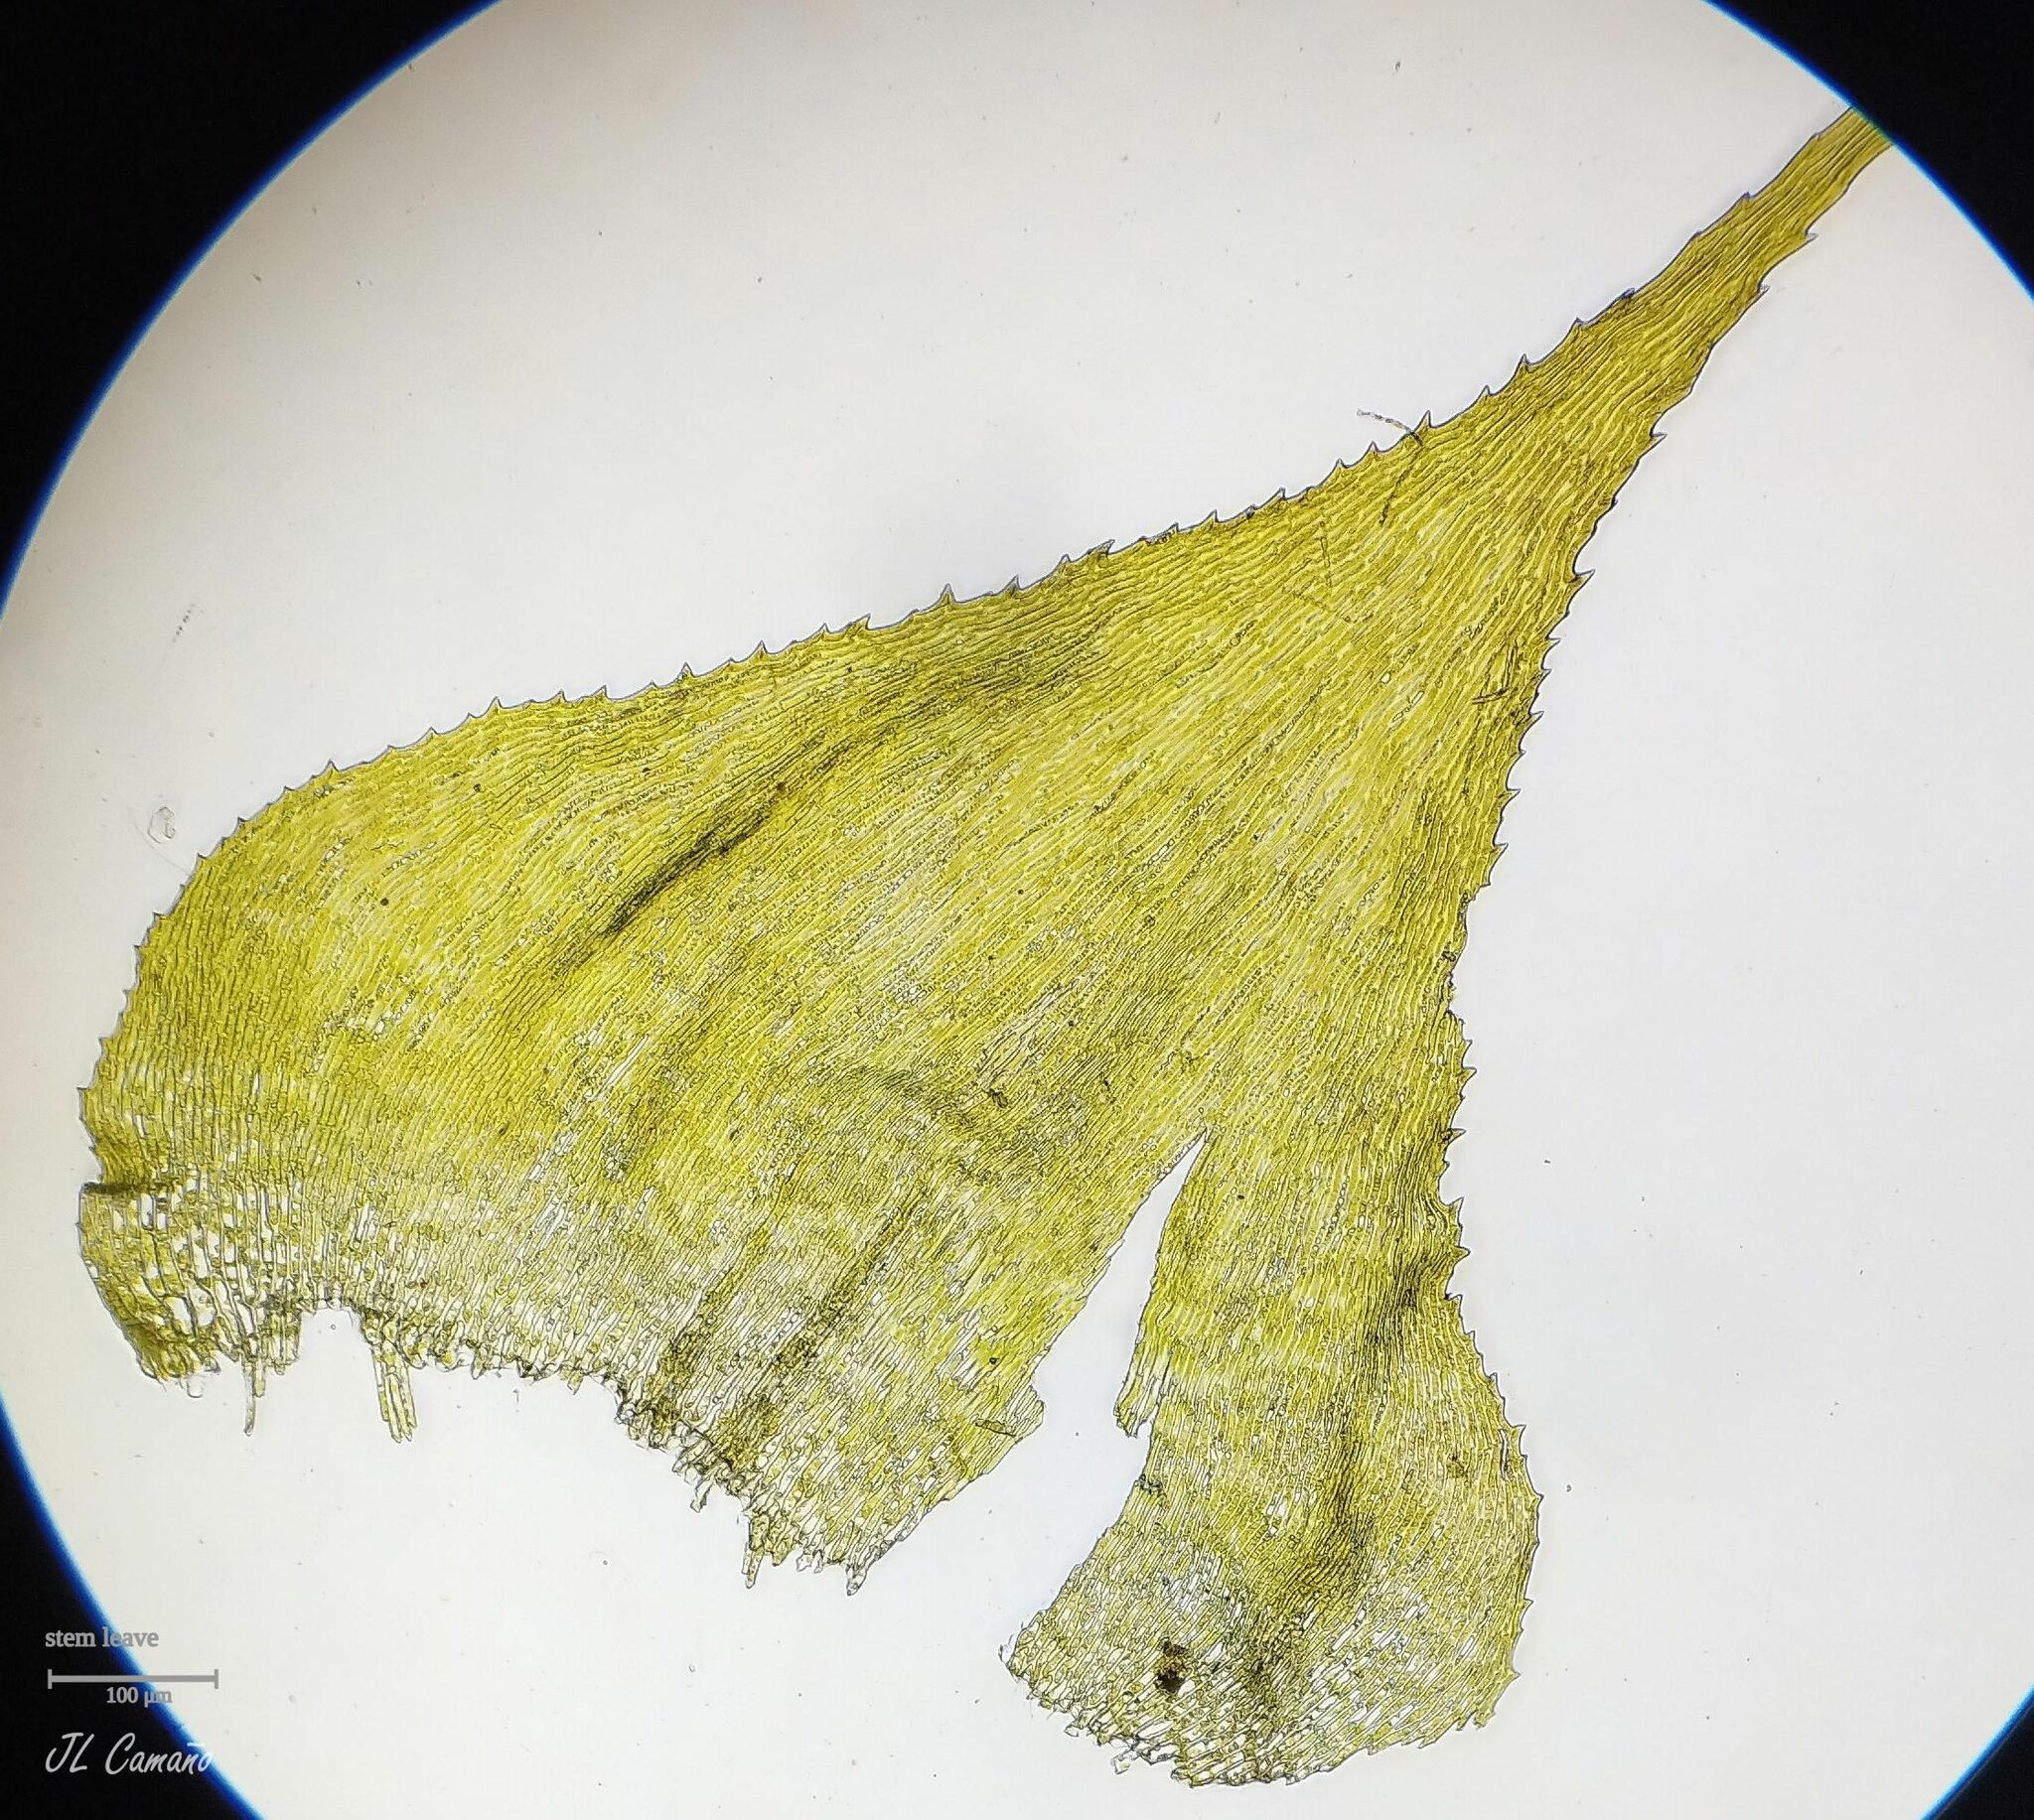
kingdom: Plantae
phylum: Bryophyta
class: Bryopsida
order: Hypnales
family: Myuriaceae
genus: Hyocomium
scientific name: Hyocomium armoricum
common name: Flagellate feather-moss
